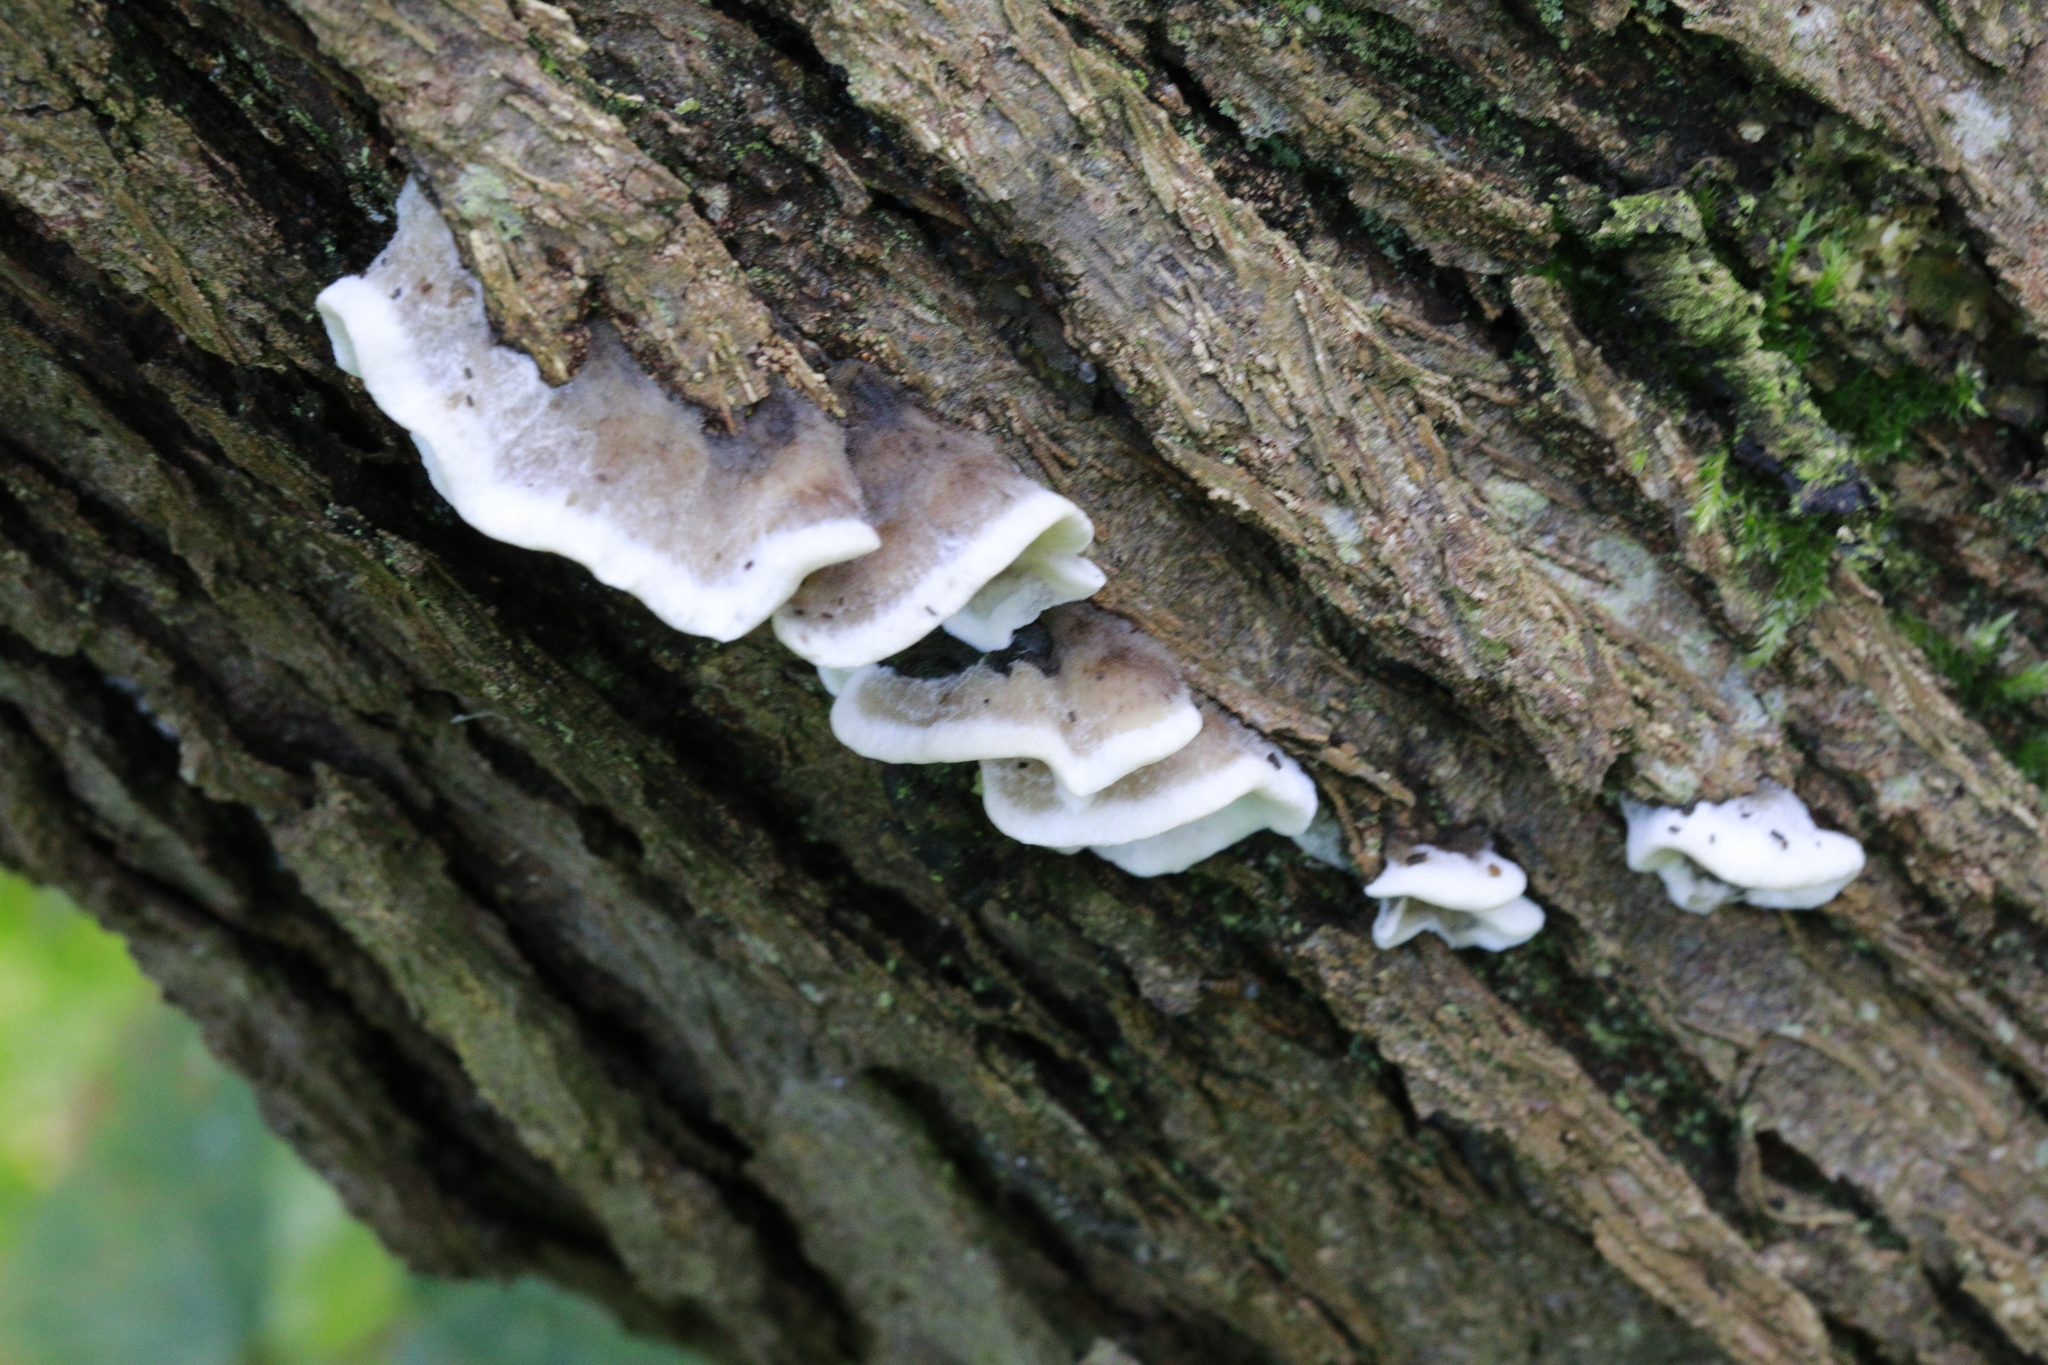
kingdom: Fungi
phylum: Basidiomycota
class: Agaricomycetes
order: Polyporales
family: Phanerochaetaceae
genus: Bjerkandera
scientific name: Bjerkandera adusta
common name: Smoky bracket
